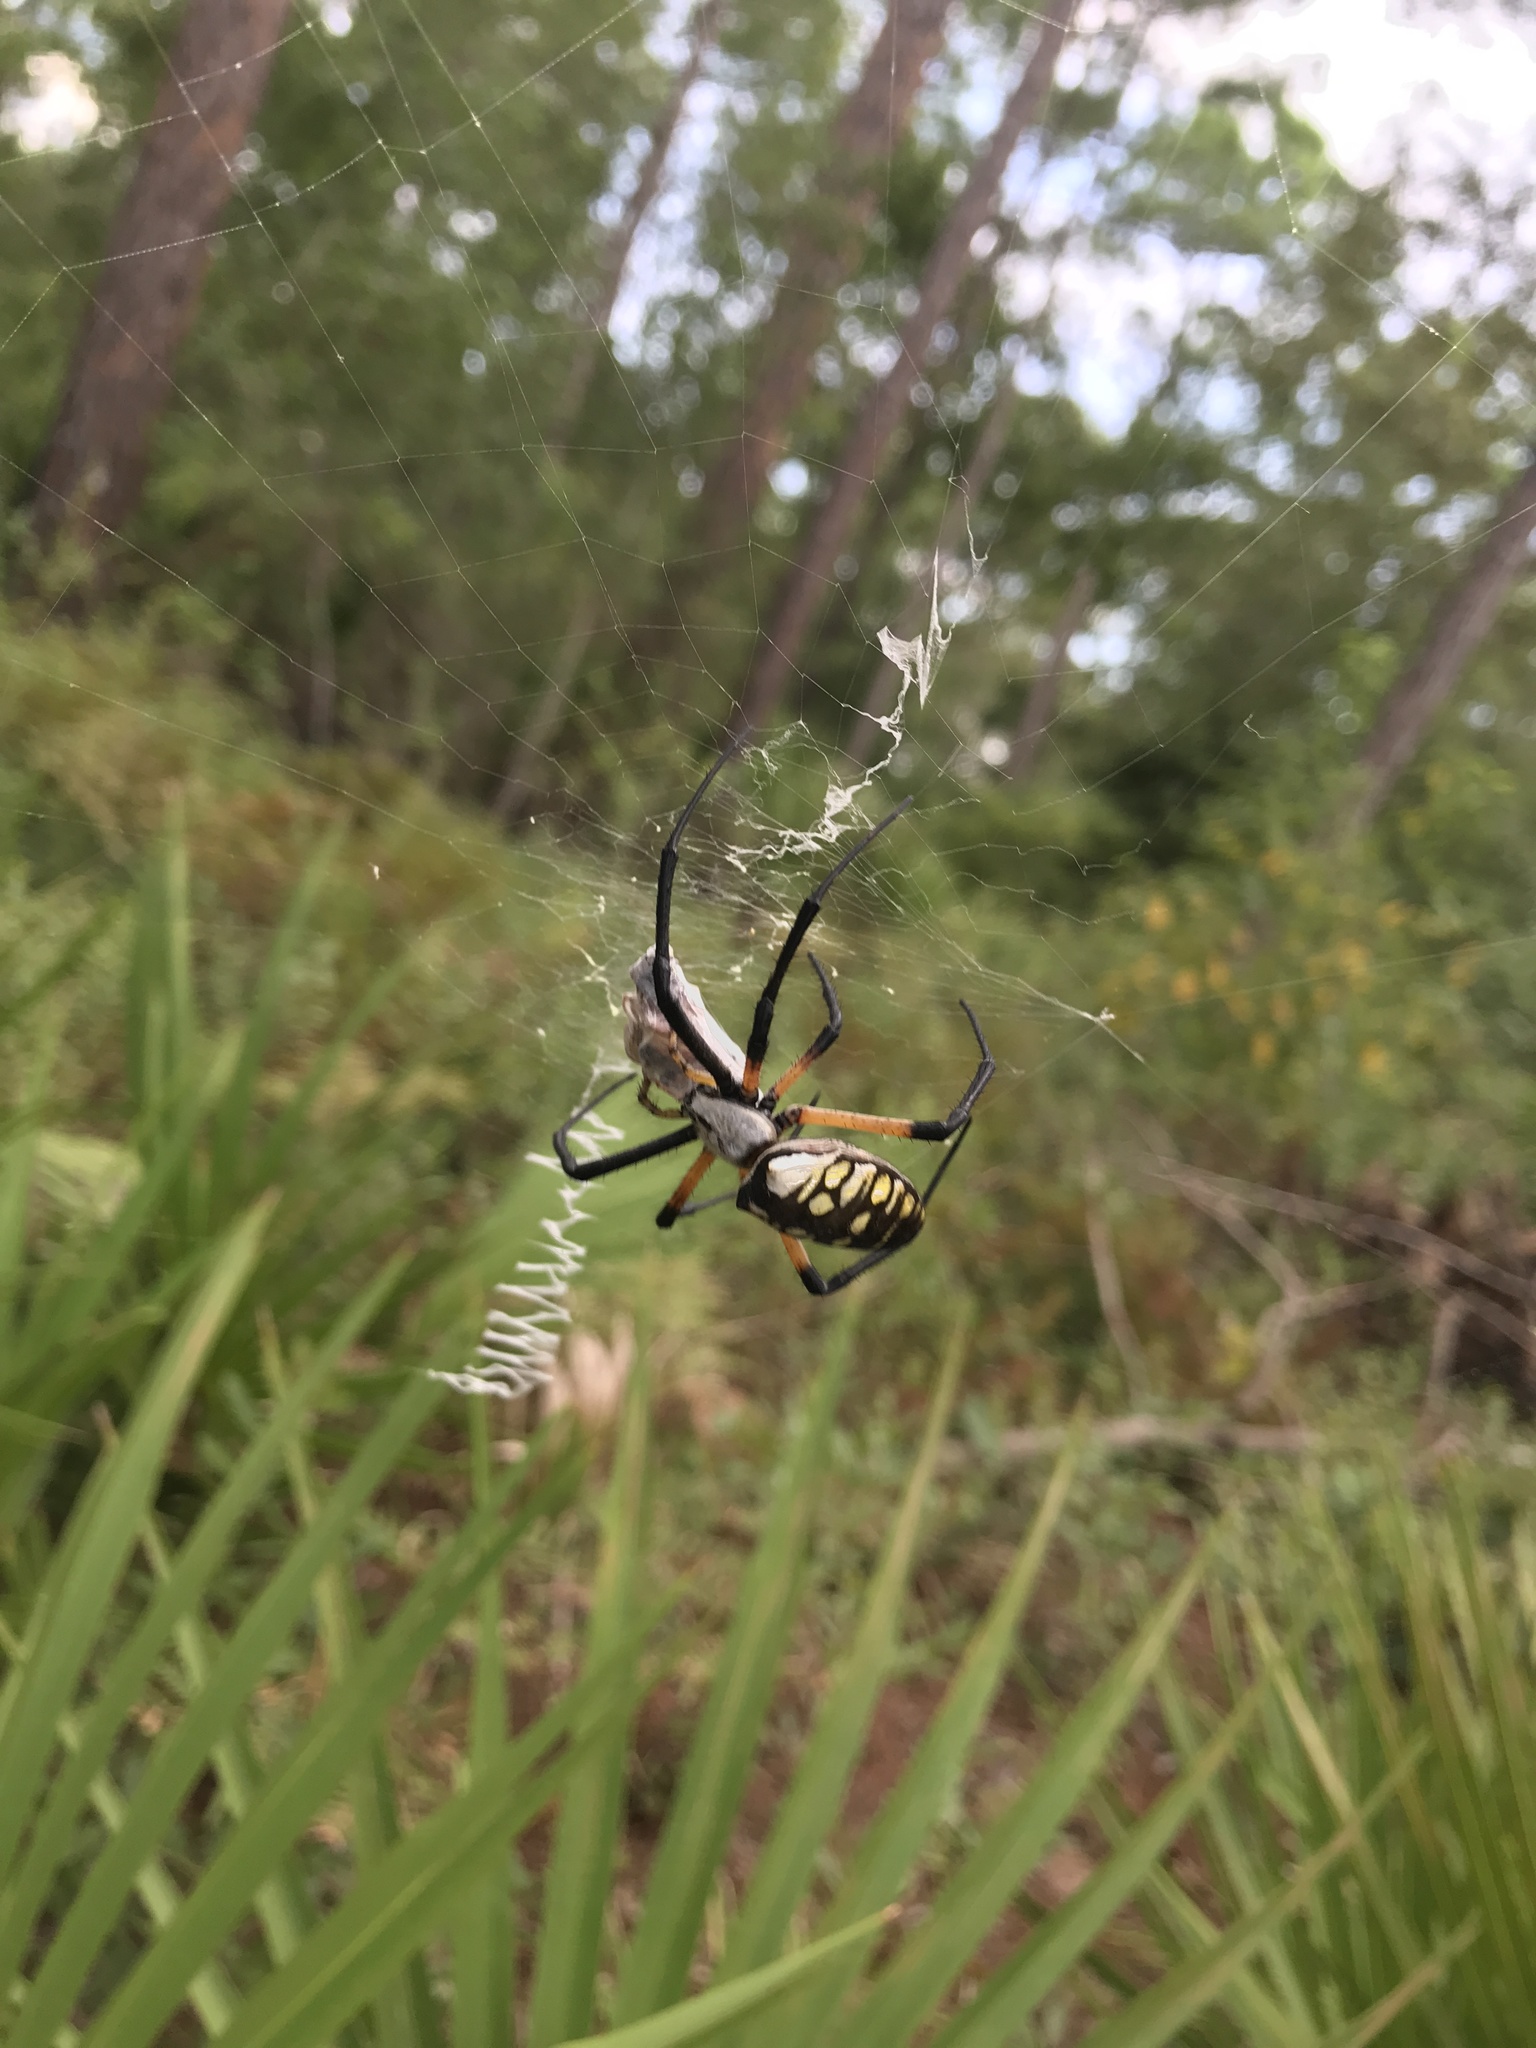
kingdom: Animalia
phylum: Arthropoda
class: Arachnida
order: Araneae
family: Araneidae
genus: Argiope
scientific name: Argiope aurantia
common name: Orb weavers
